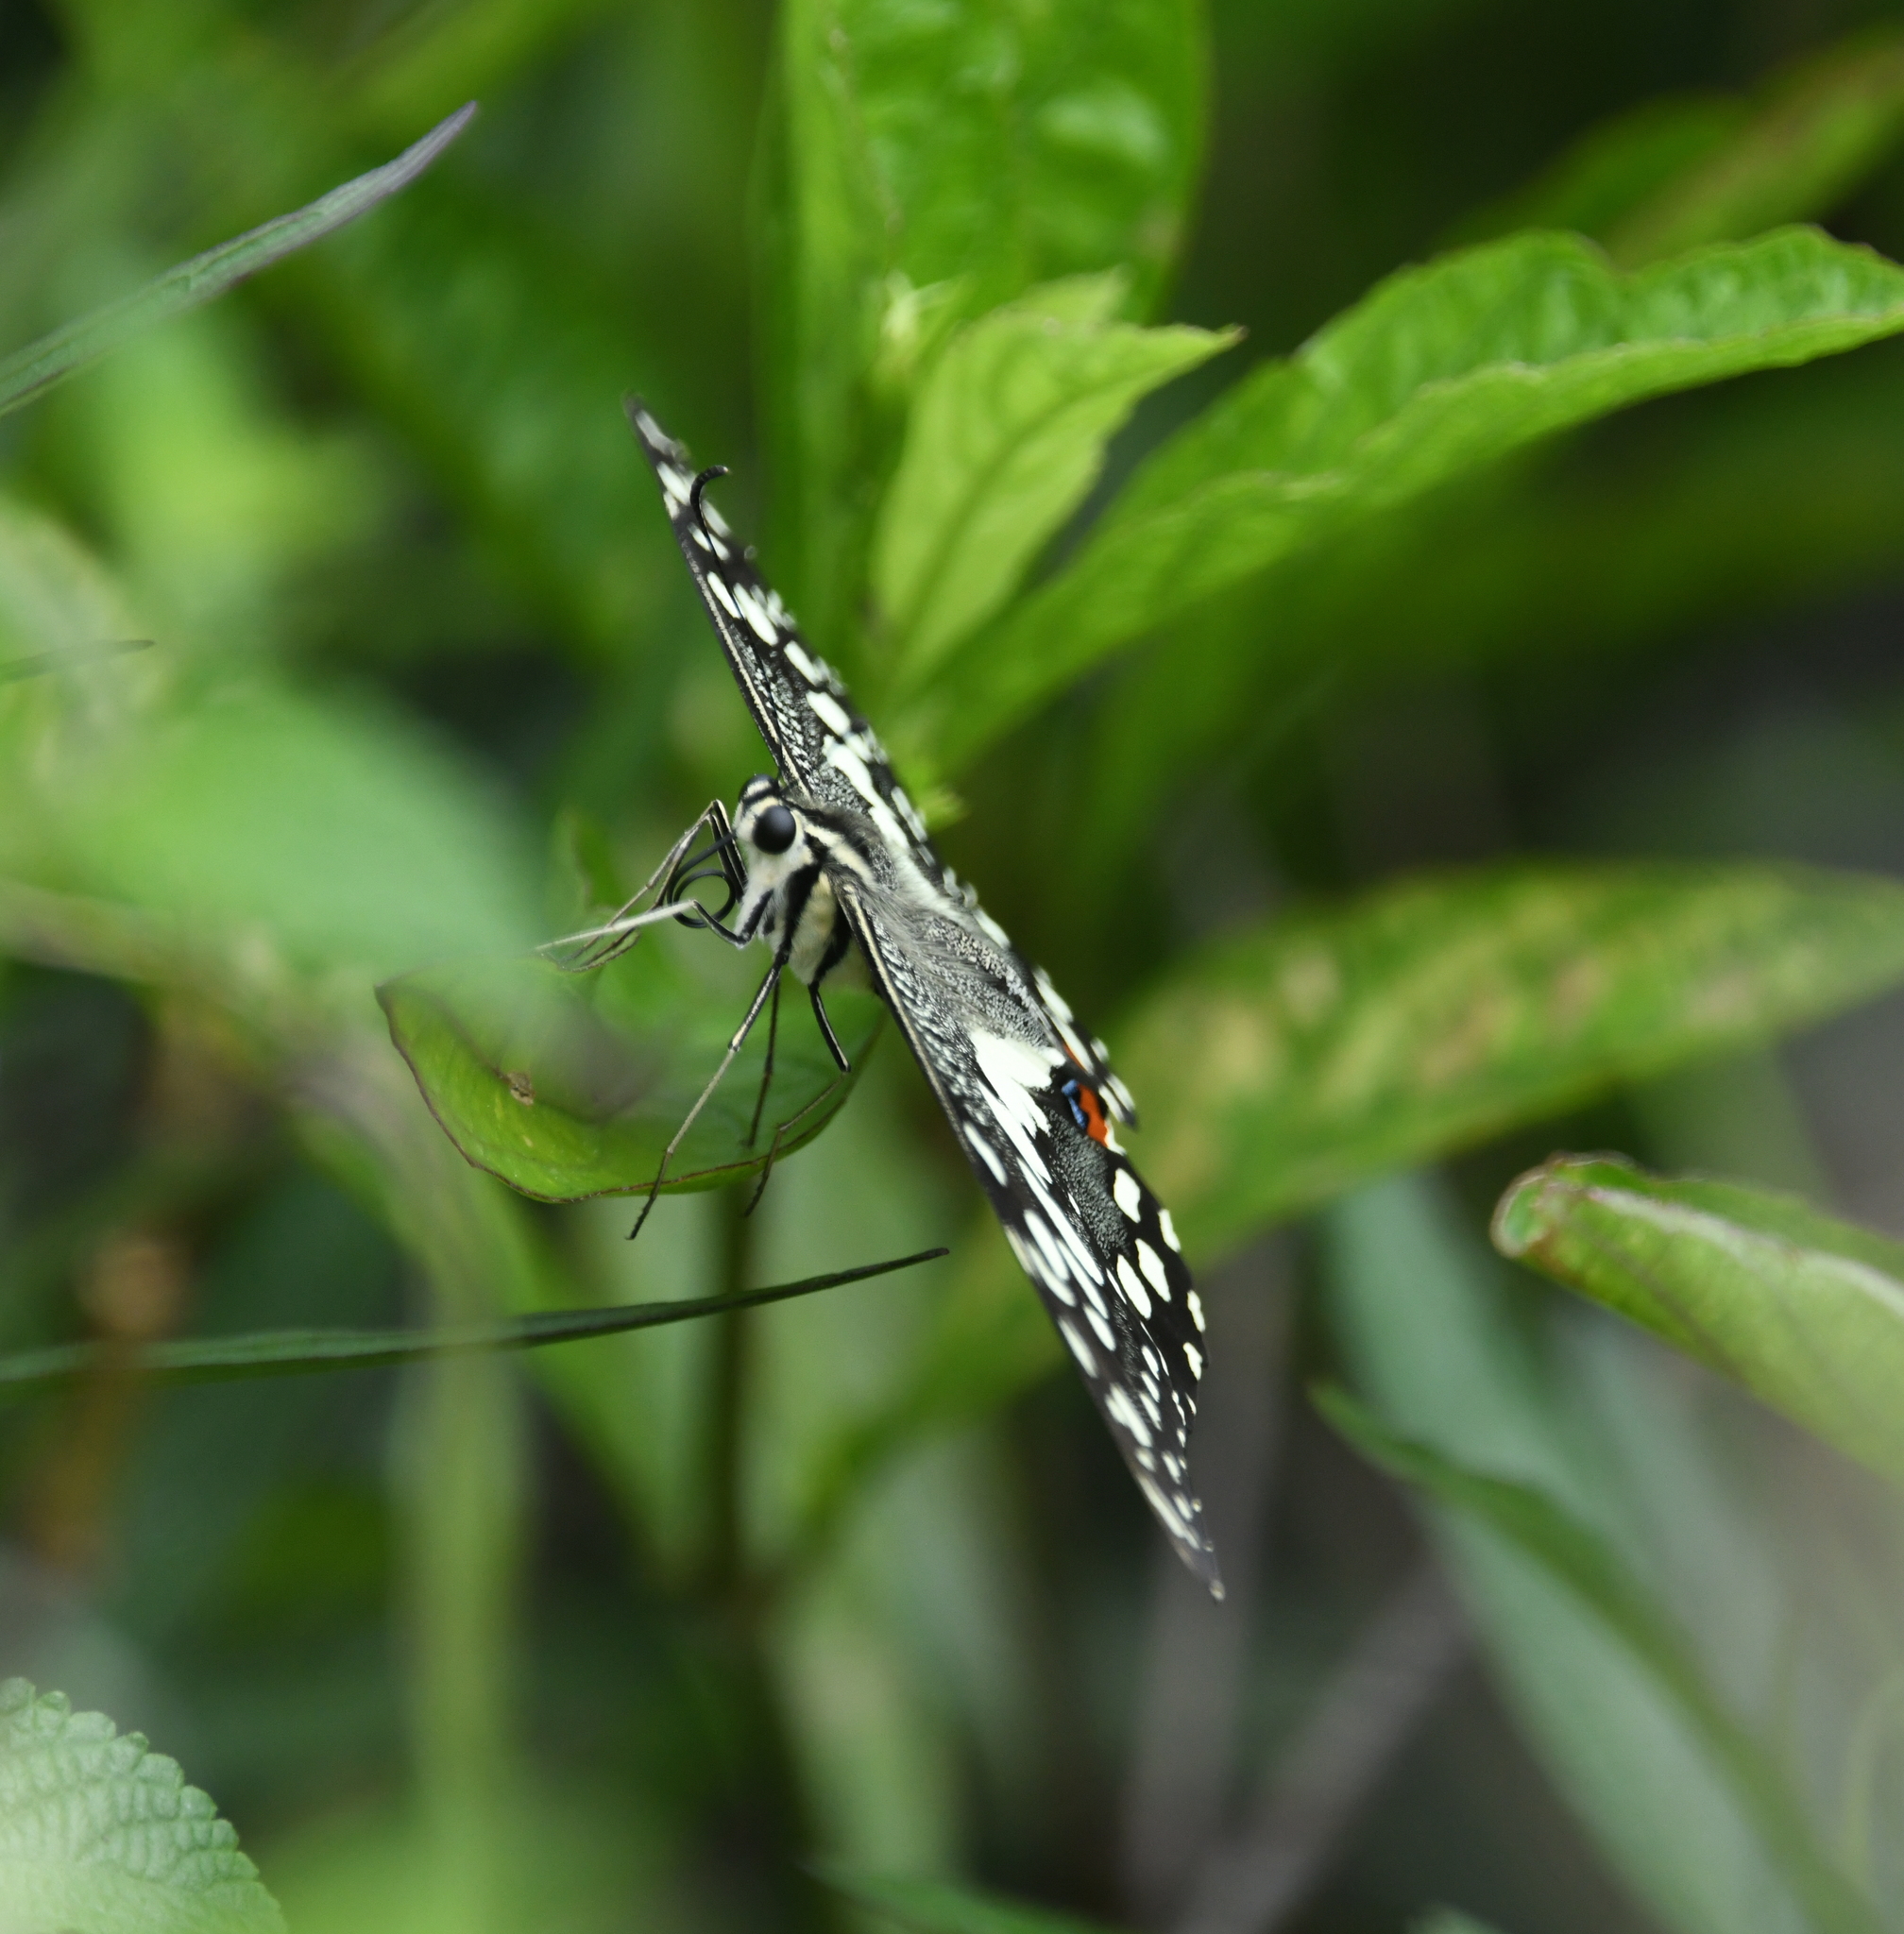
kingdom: Animalia
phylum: Arthropoda
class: Insecta
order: Lepidoptera
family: Papilionidae
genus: Papilio
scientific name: Papilio demoleus
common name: Lime butterfly
